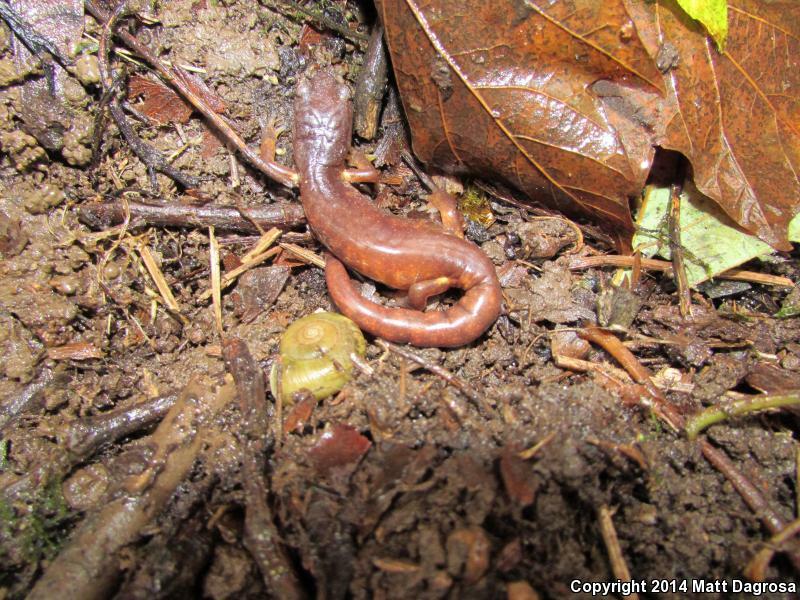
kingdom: Animalia
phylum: Chordata
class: Amphibia
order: Caudata
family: Plethodontidae
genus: Ensatina
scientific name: Ensatina eschscholtzii
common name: Ensatina
